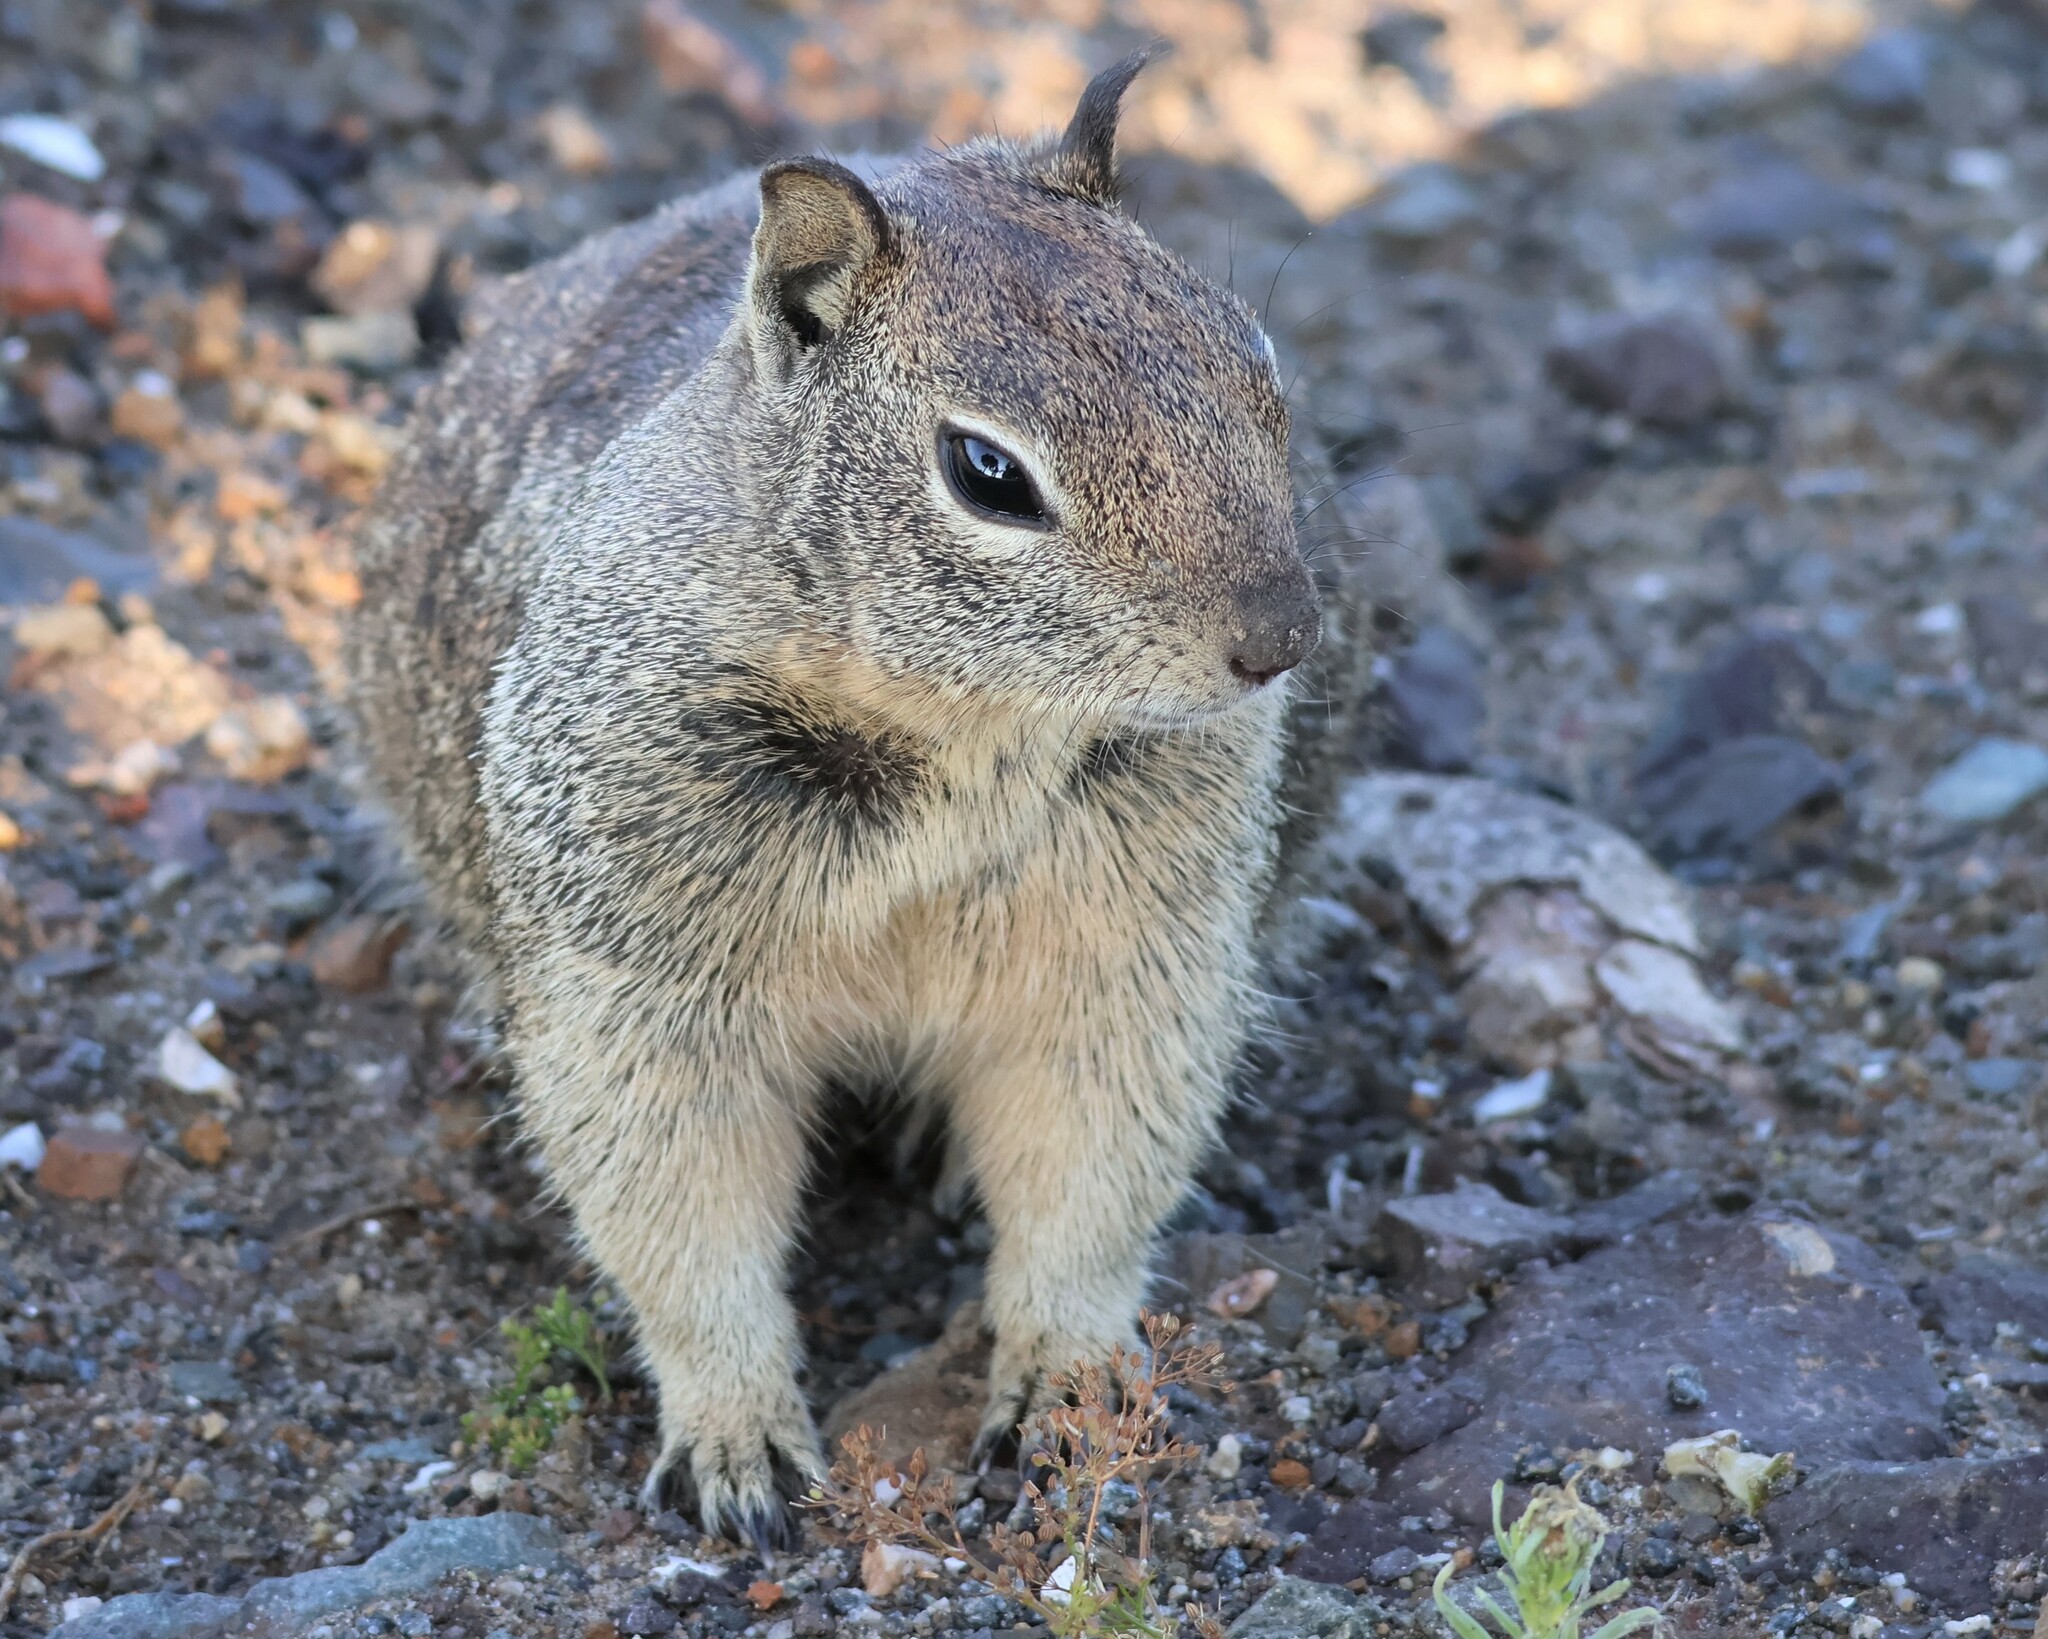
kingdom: Animalia
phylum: Chordata
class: Mammalia
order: Rodentia
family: Sciuridae
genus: Otospermophilus
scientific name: Otospermophilus beecheyi
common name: California ground squirrel
